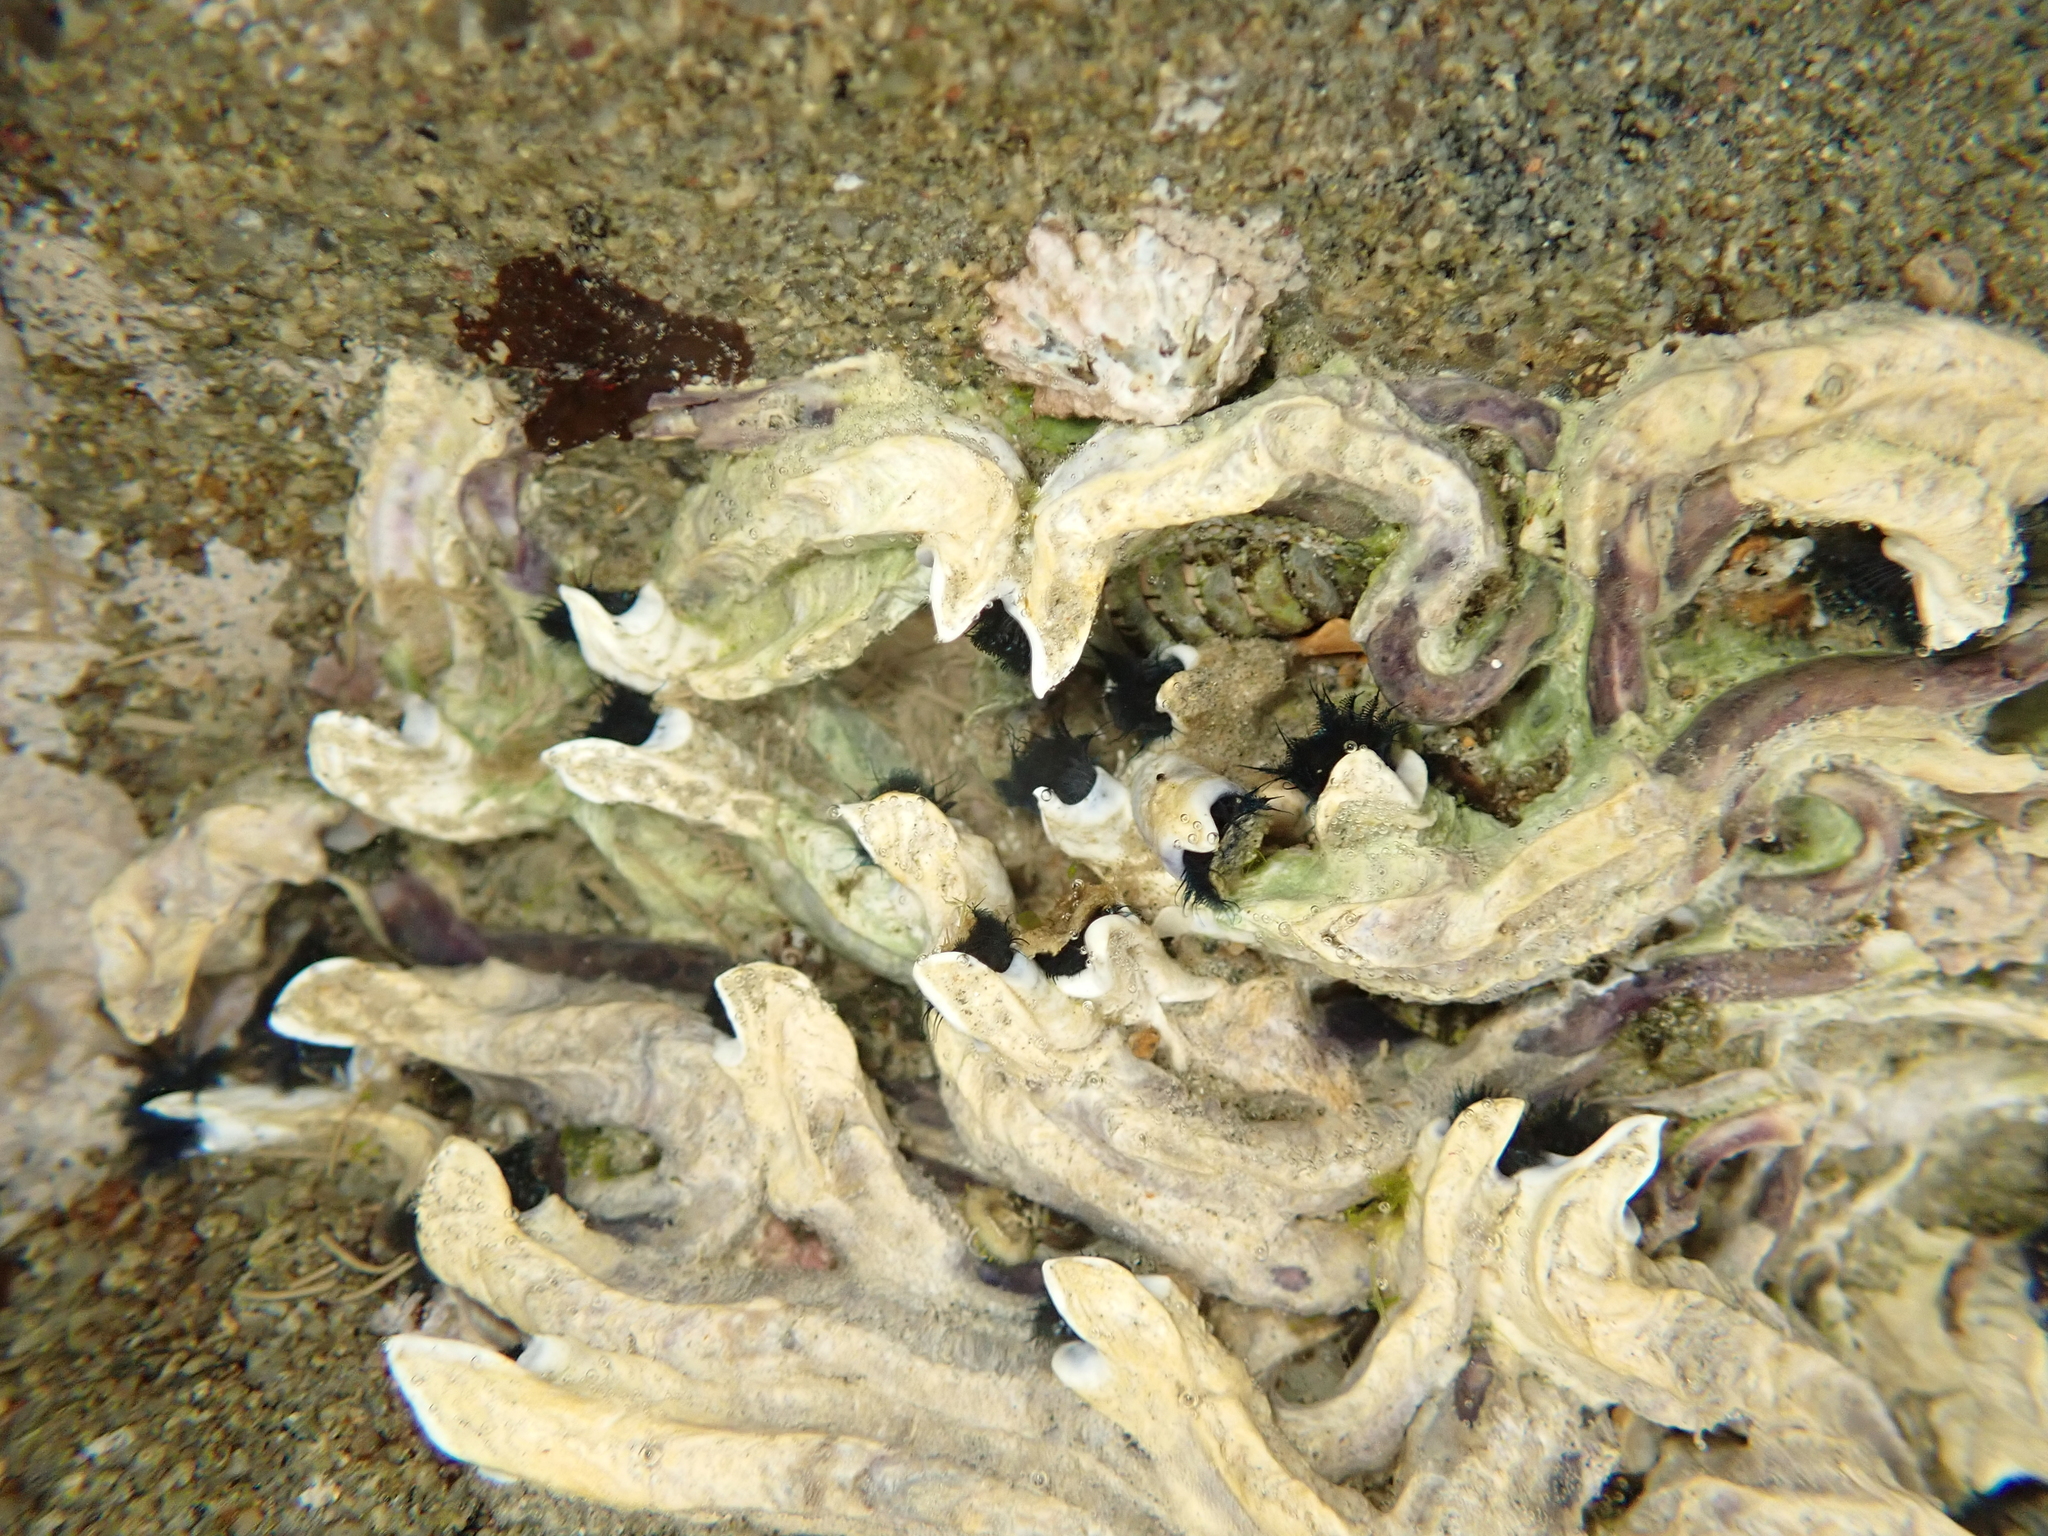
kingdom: Animalia
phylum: Mollusca
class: Gastropoda
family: Lottiidae
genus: Patelloida
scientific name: Patelloida corticata
